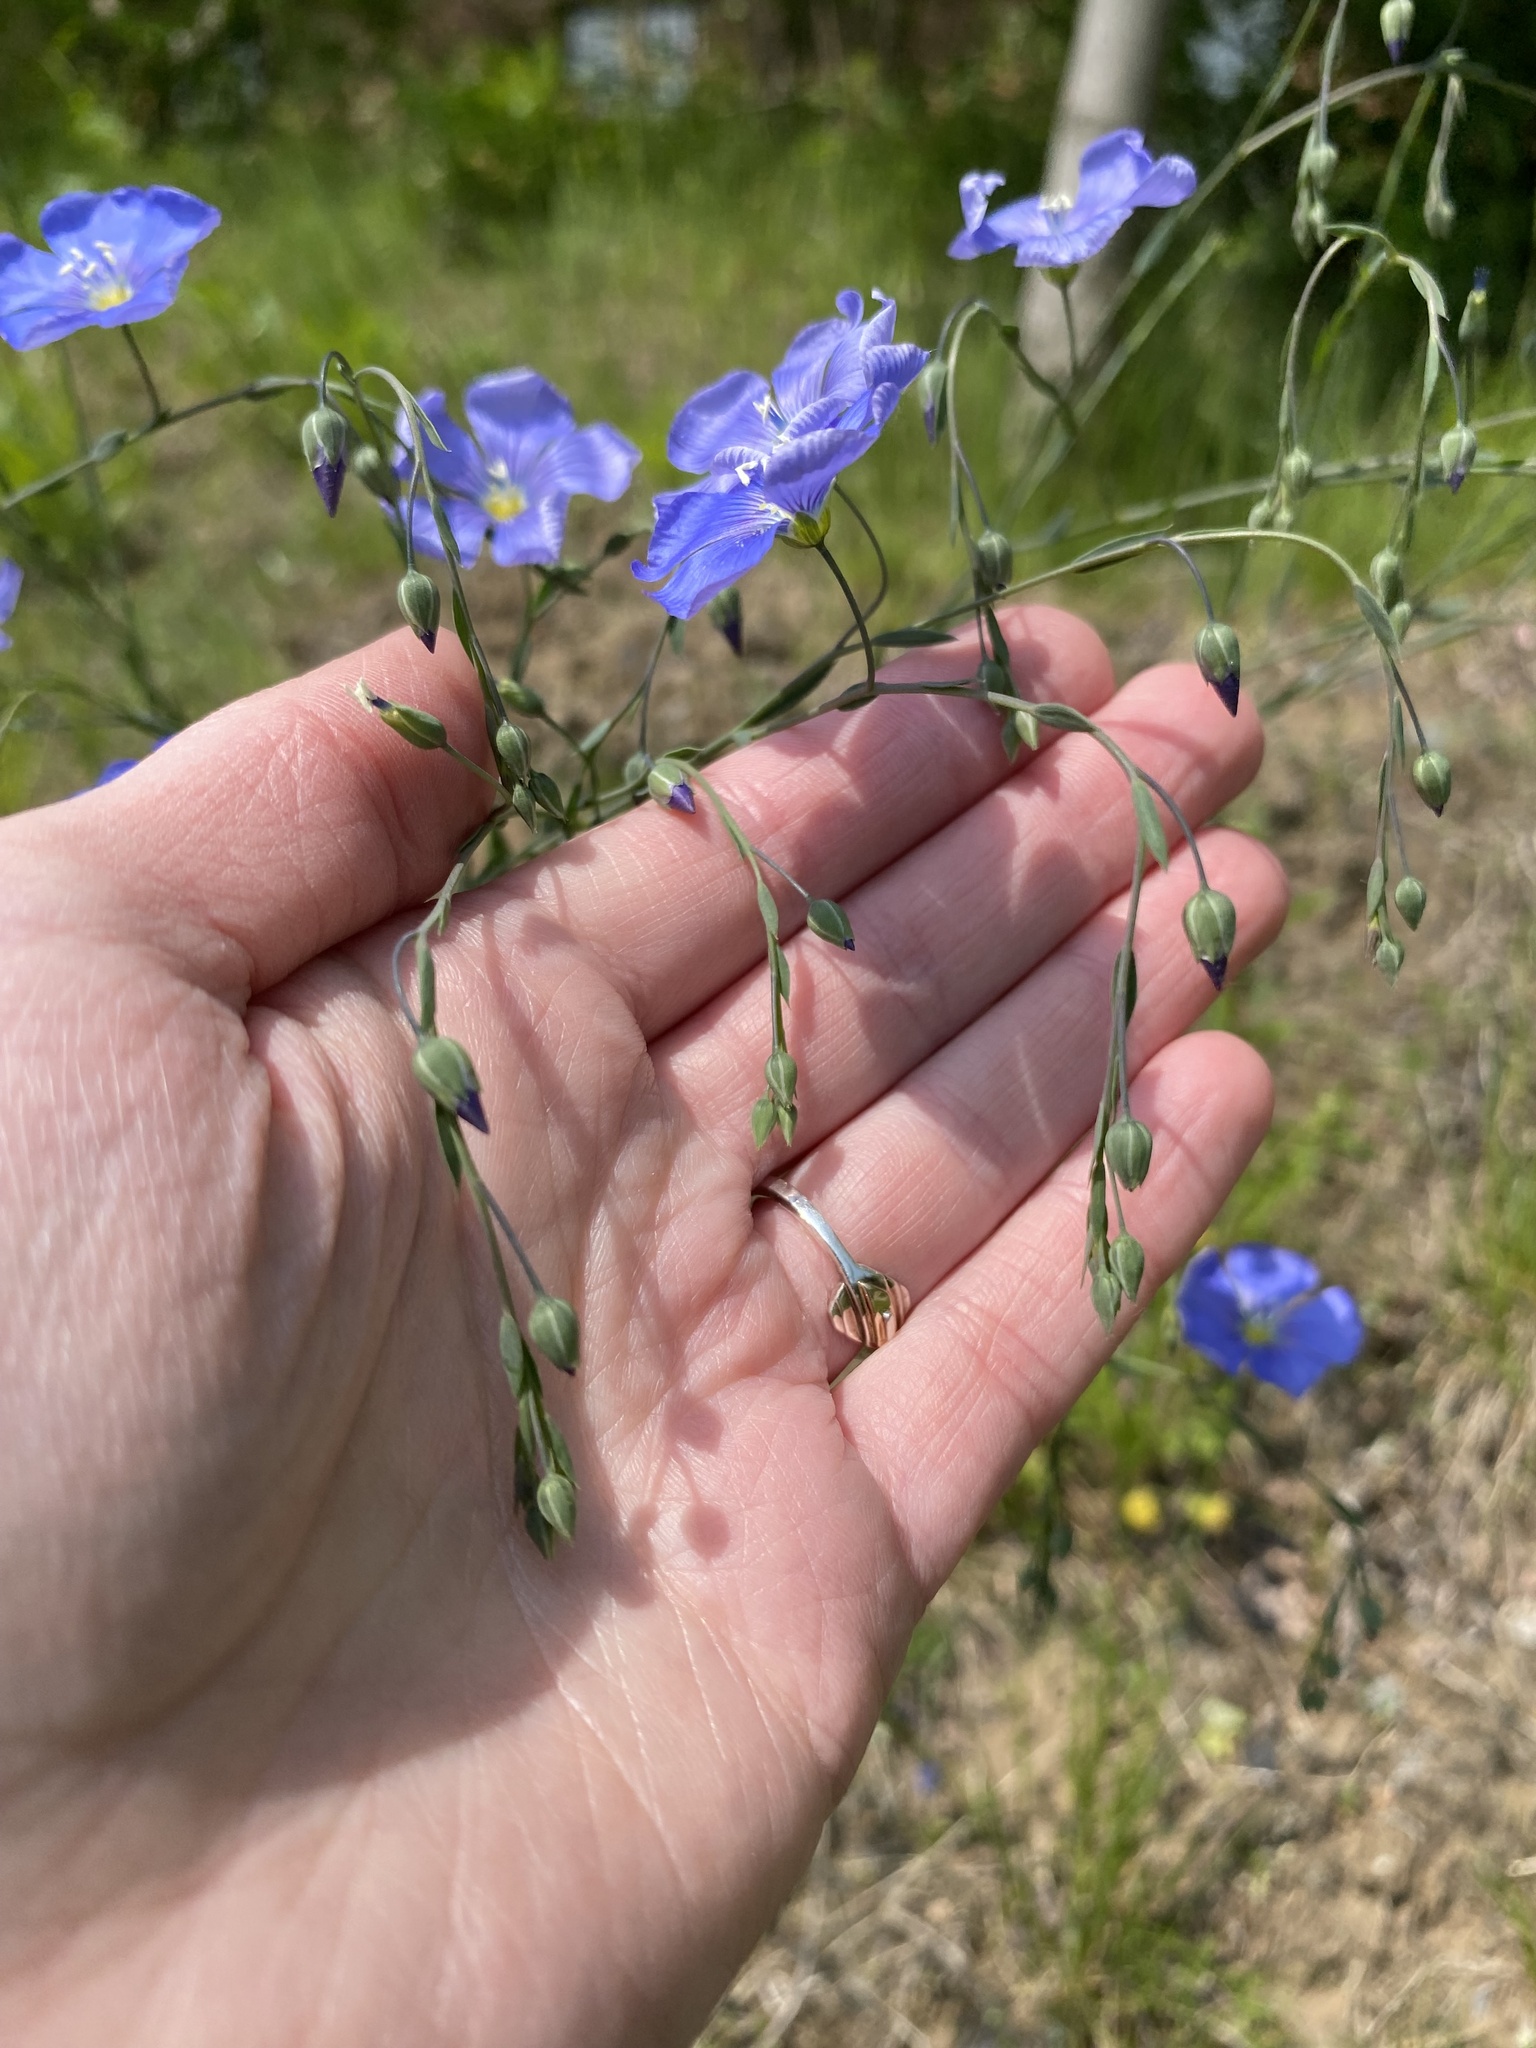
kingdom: Plantae
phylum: Tracheophyta
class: Magnoliopsida
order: Malpighiales
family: Linaceae
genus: Linum
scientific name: Linum perenne
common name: Blue flax
